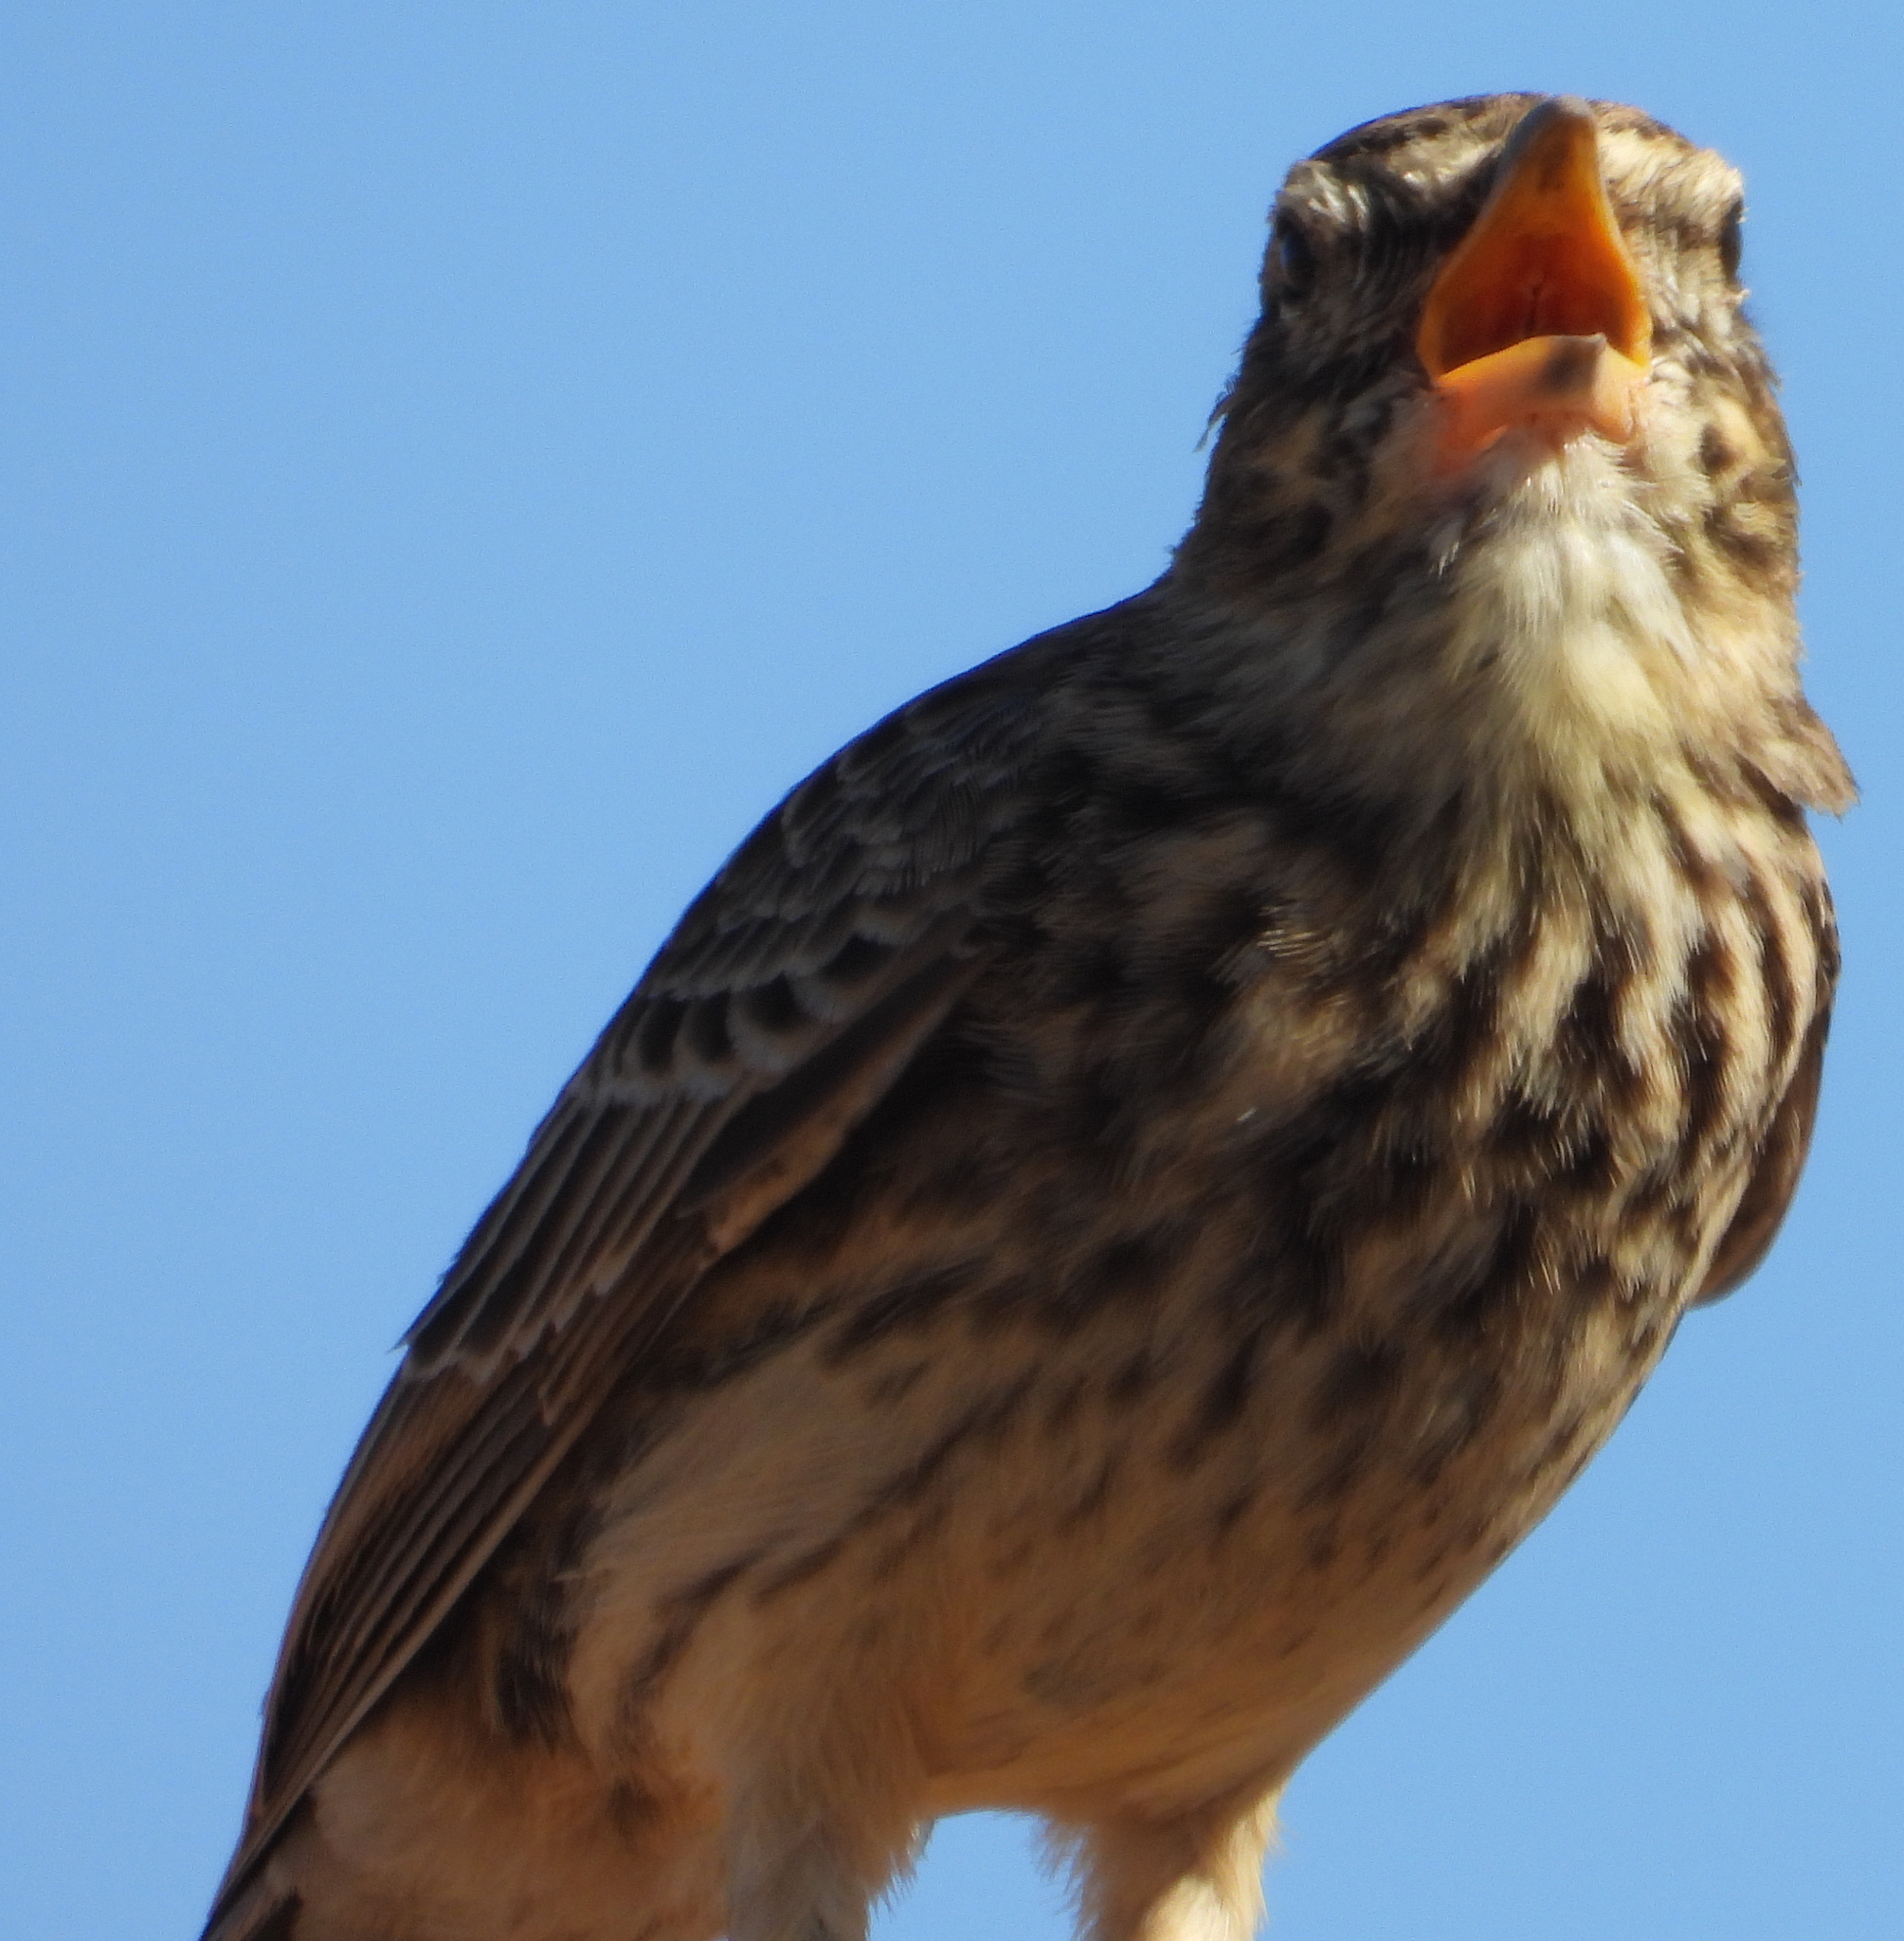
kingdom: Animalia
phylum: Chordata
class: Aves
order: Passeriformes
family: Alaudidae
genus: Galerida
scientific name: Galerida magnirostris
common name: Large-billed lark
